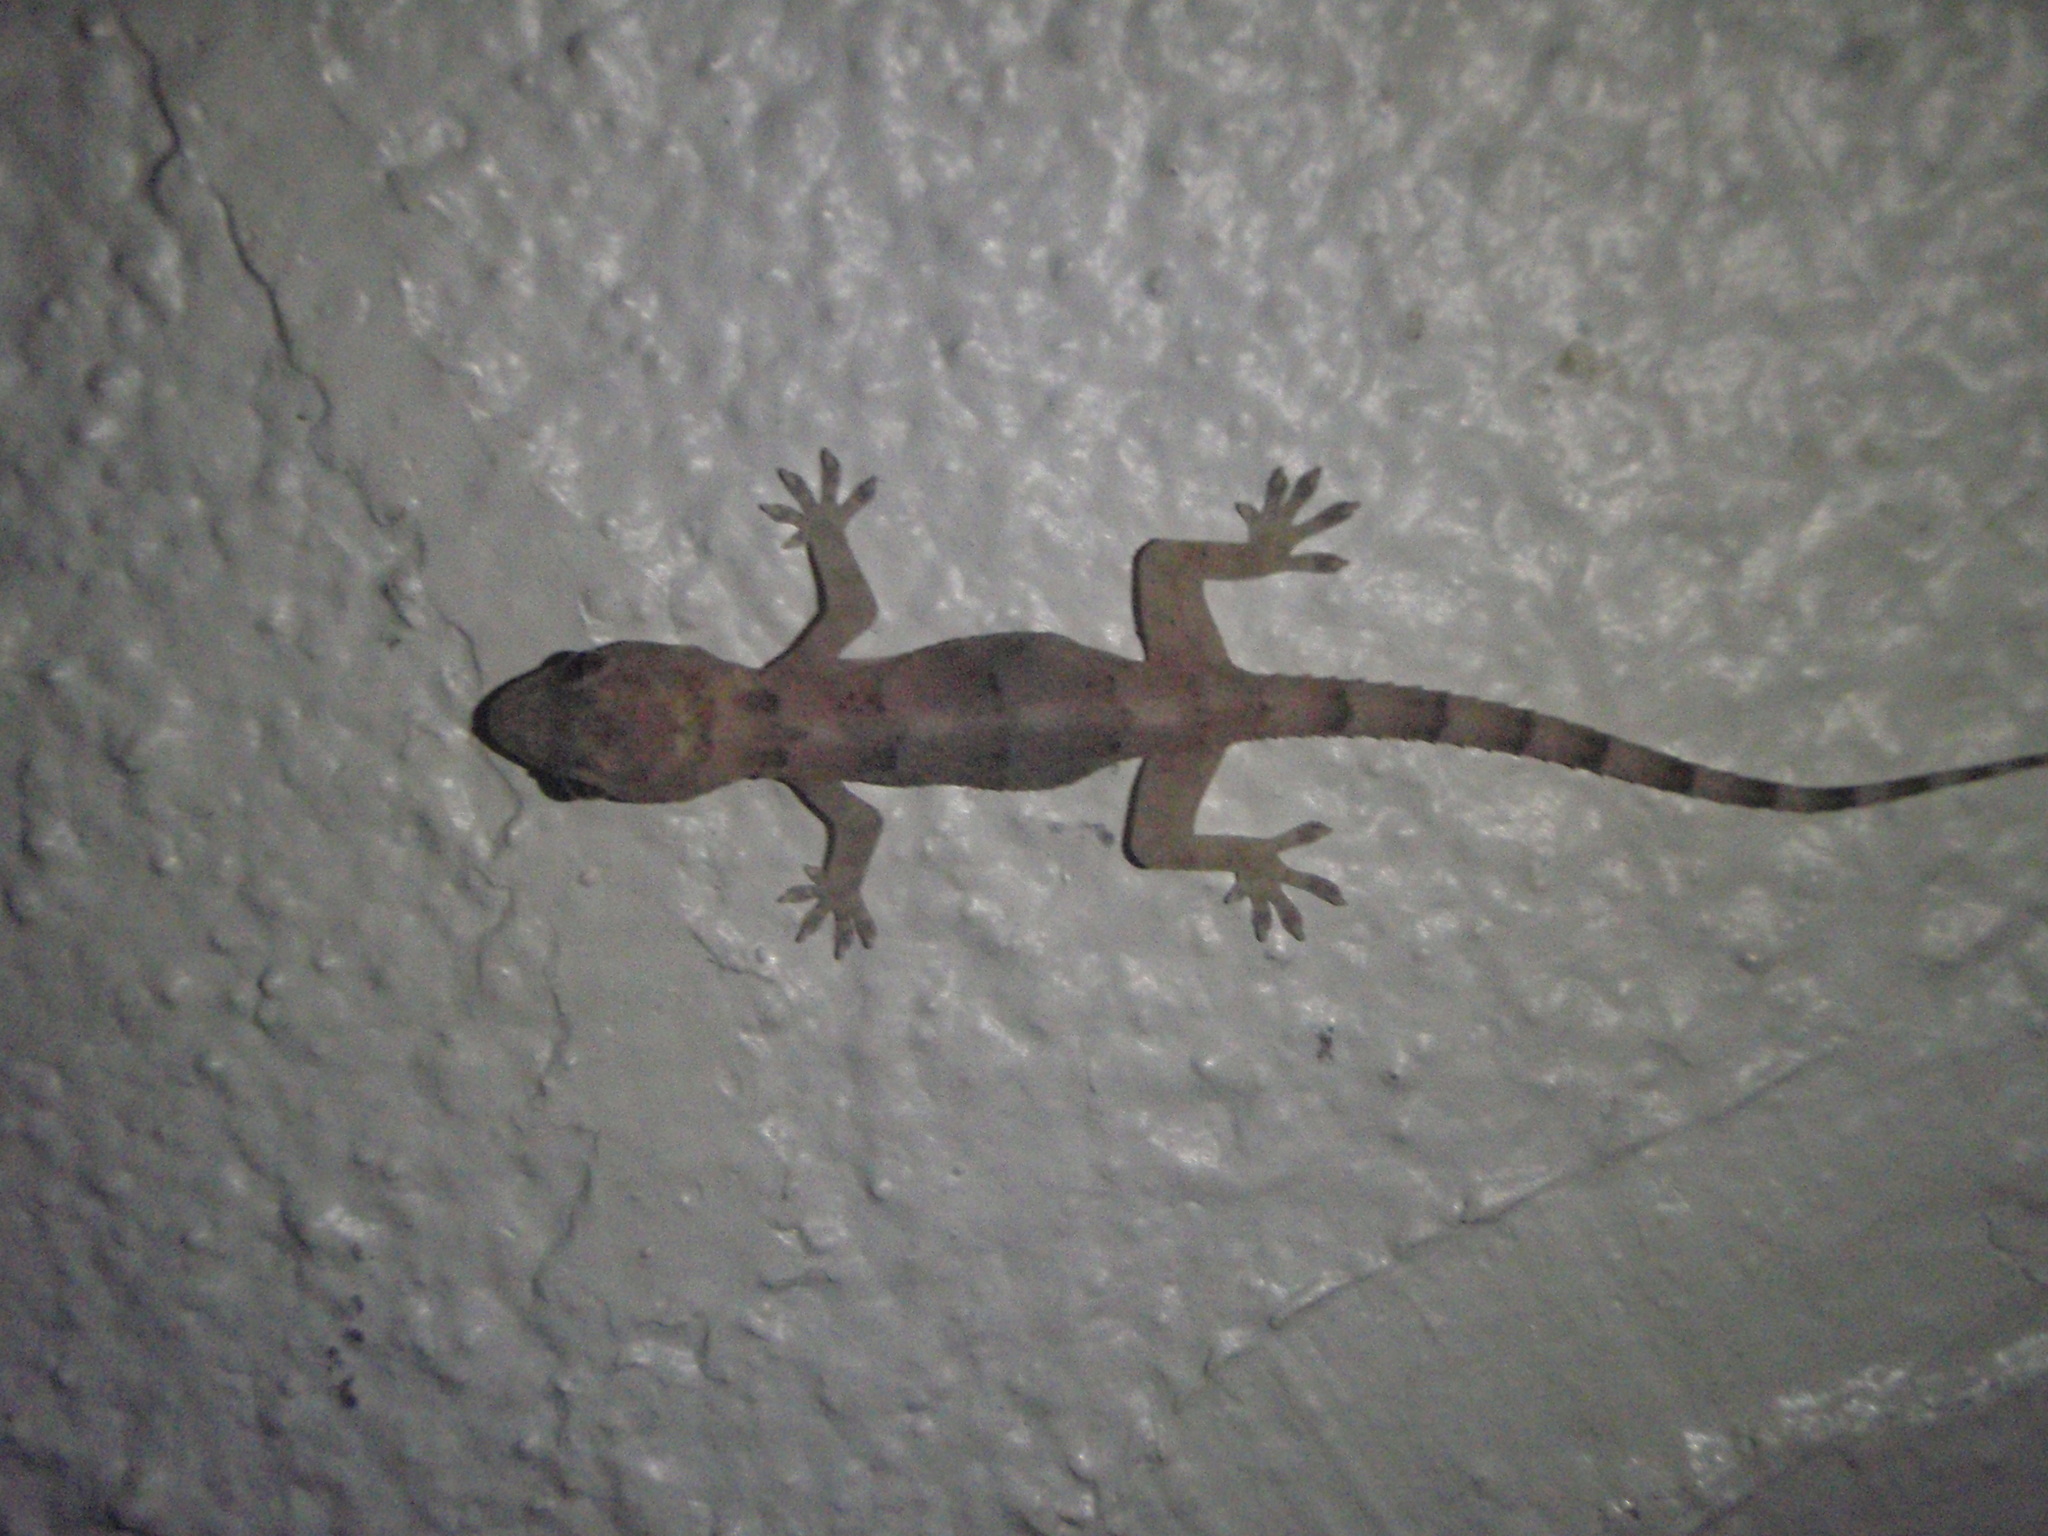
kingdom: Animalia
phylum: Chordata
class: Squamata
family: Gekkonidae
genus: Hemidactylus
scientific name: Hemidactylus mabouia
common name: House gecko
